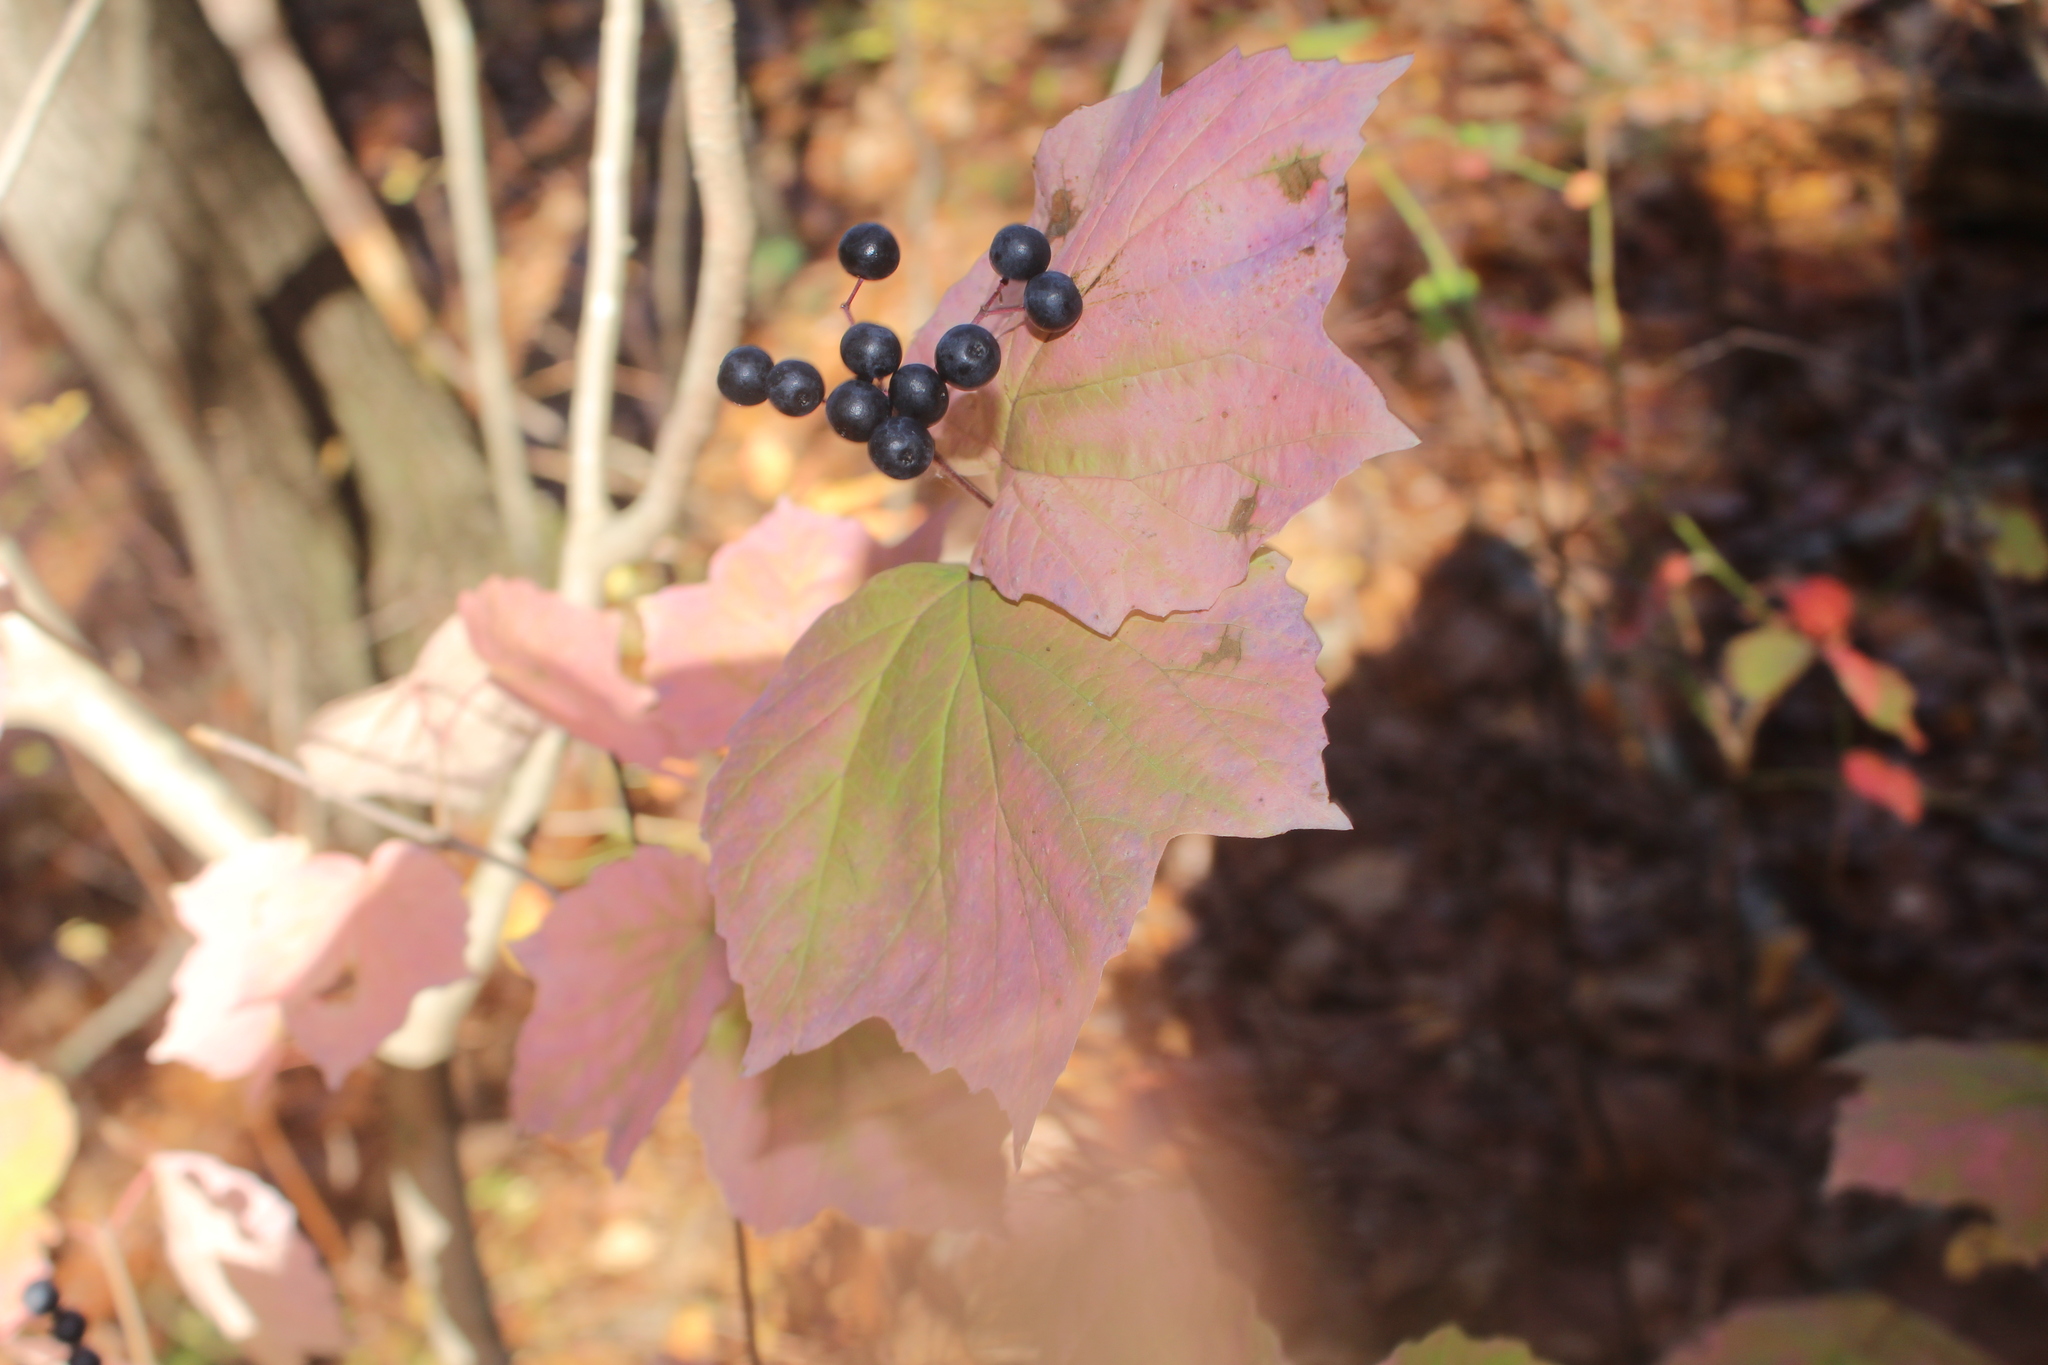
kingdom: Plantae
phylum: Tracheophyta
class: Magnoliopsida
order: Dipsacales
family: Viburnaceae
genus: Viburnum
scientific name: Viburnum acerifolium
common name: Dockmackie
